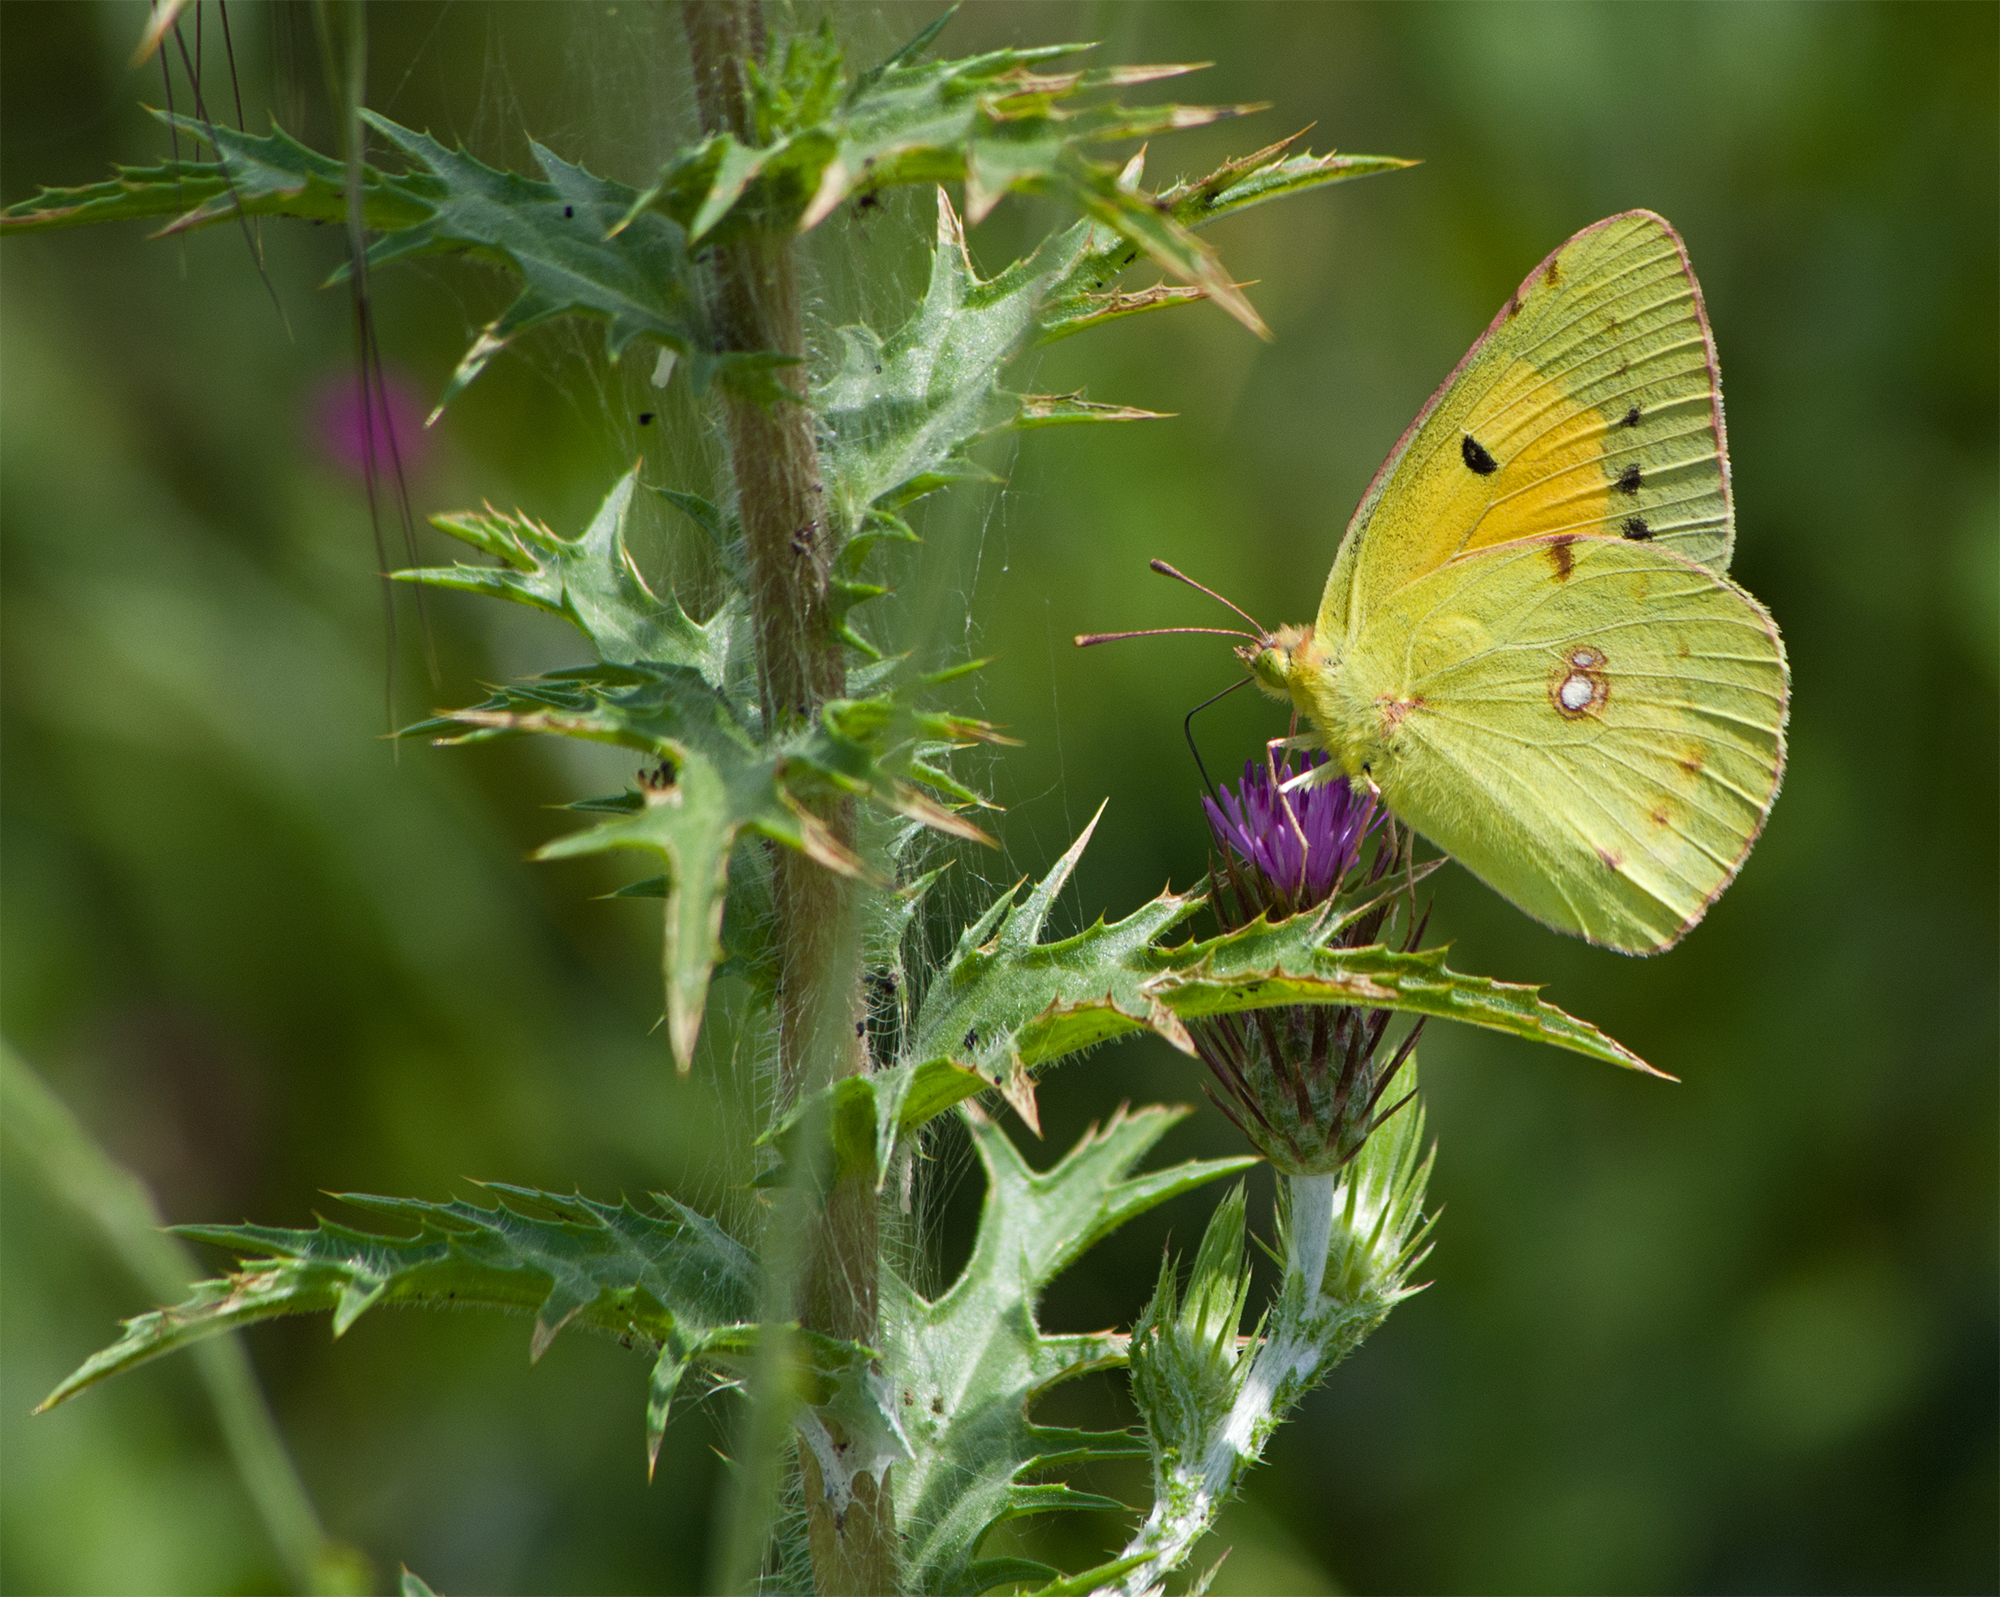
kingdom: Animalia
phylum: Arthropoda
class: Insecta
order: Lepidoptera
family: Pieridae
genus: Colias
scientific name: Colias croceus
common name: Clouded yellow
